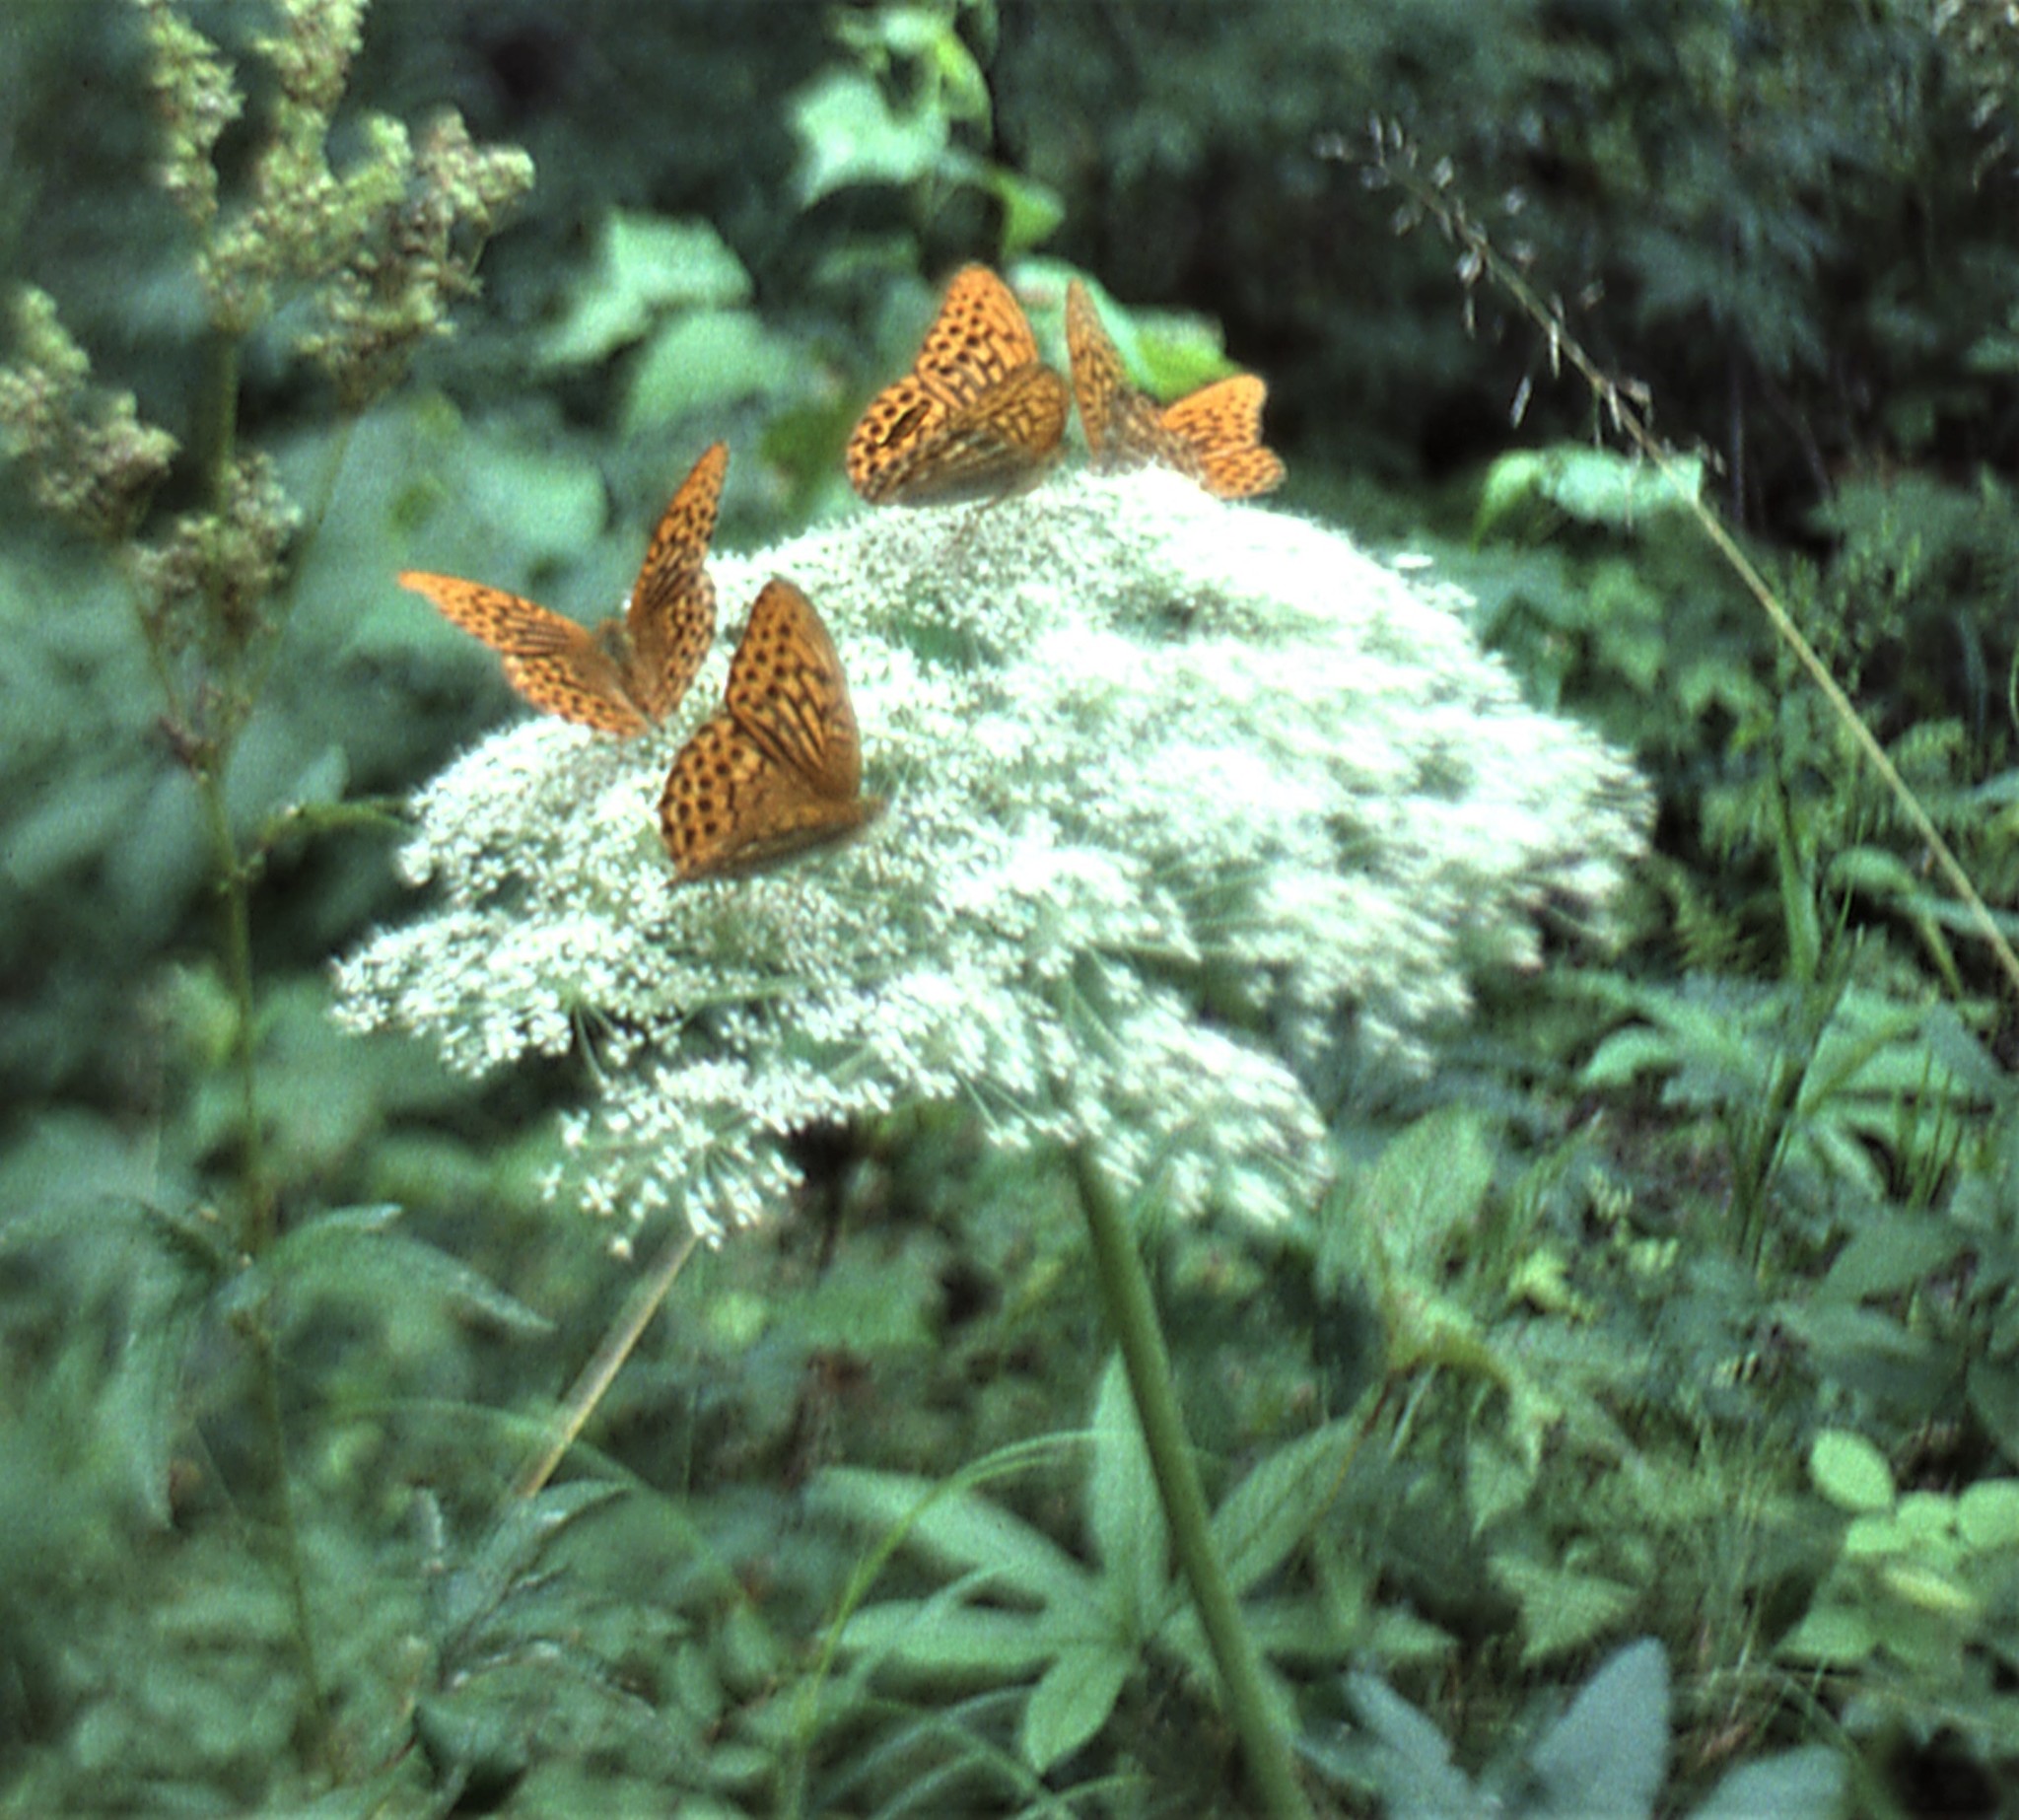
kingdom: Animalia
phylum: Arthropoda
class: Insecta
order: Lepidoptera
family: Nymphalidae
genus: Argynnis
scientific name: Argynnis paphia
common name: Silver-washed fritillary
